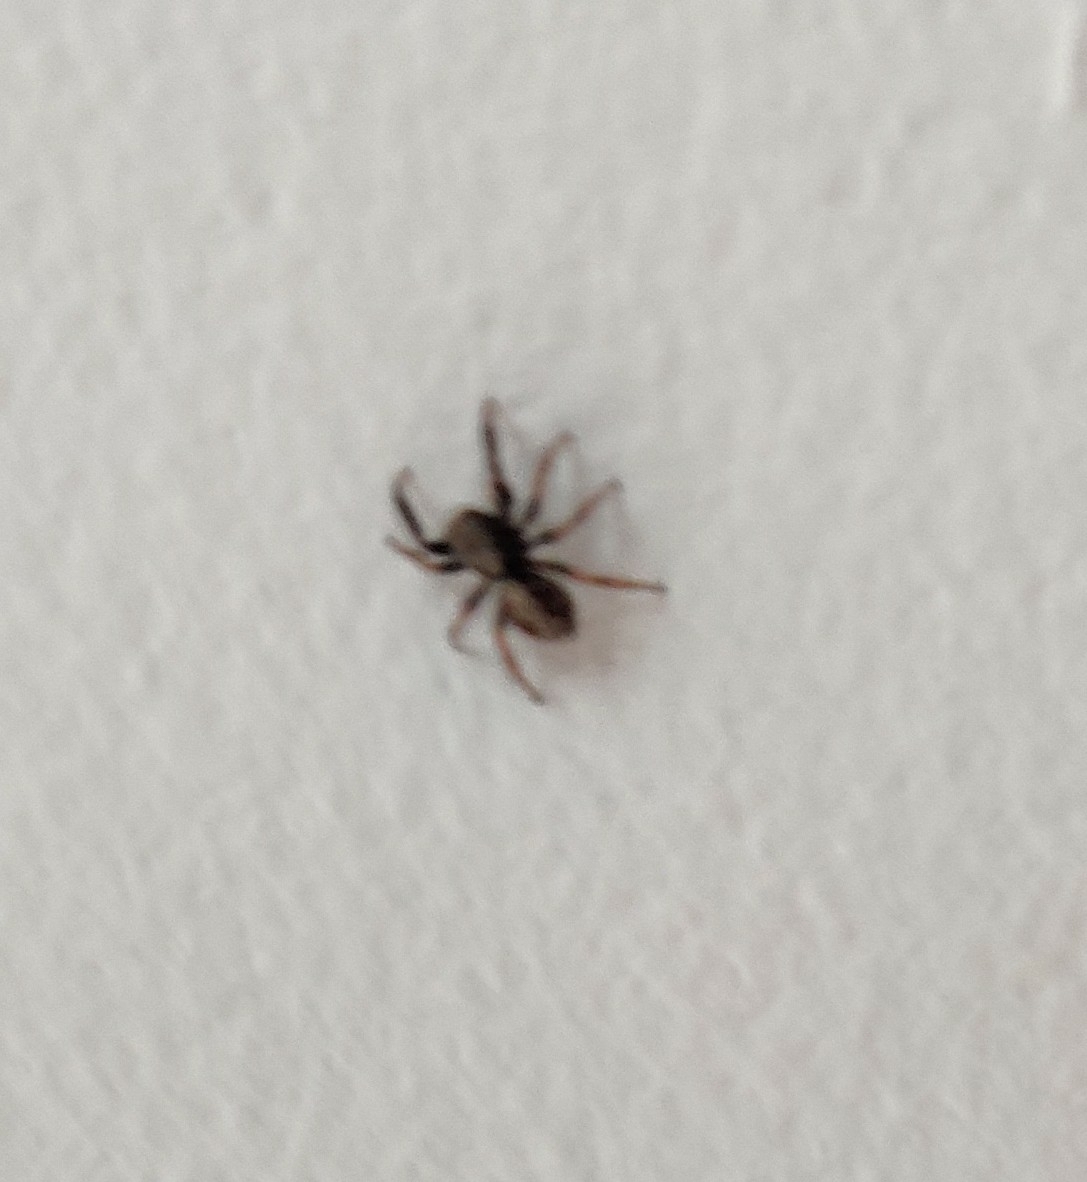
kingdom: Animalia
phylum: Arthropoda
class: Arachnida
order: Araneae
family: Salticidae
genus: Pseudeuophrys
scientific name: Pseudeuophrys lanigera
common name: Jumping spider
